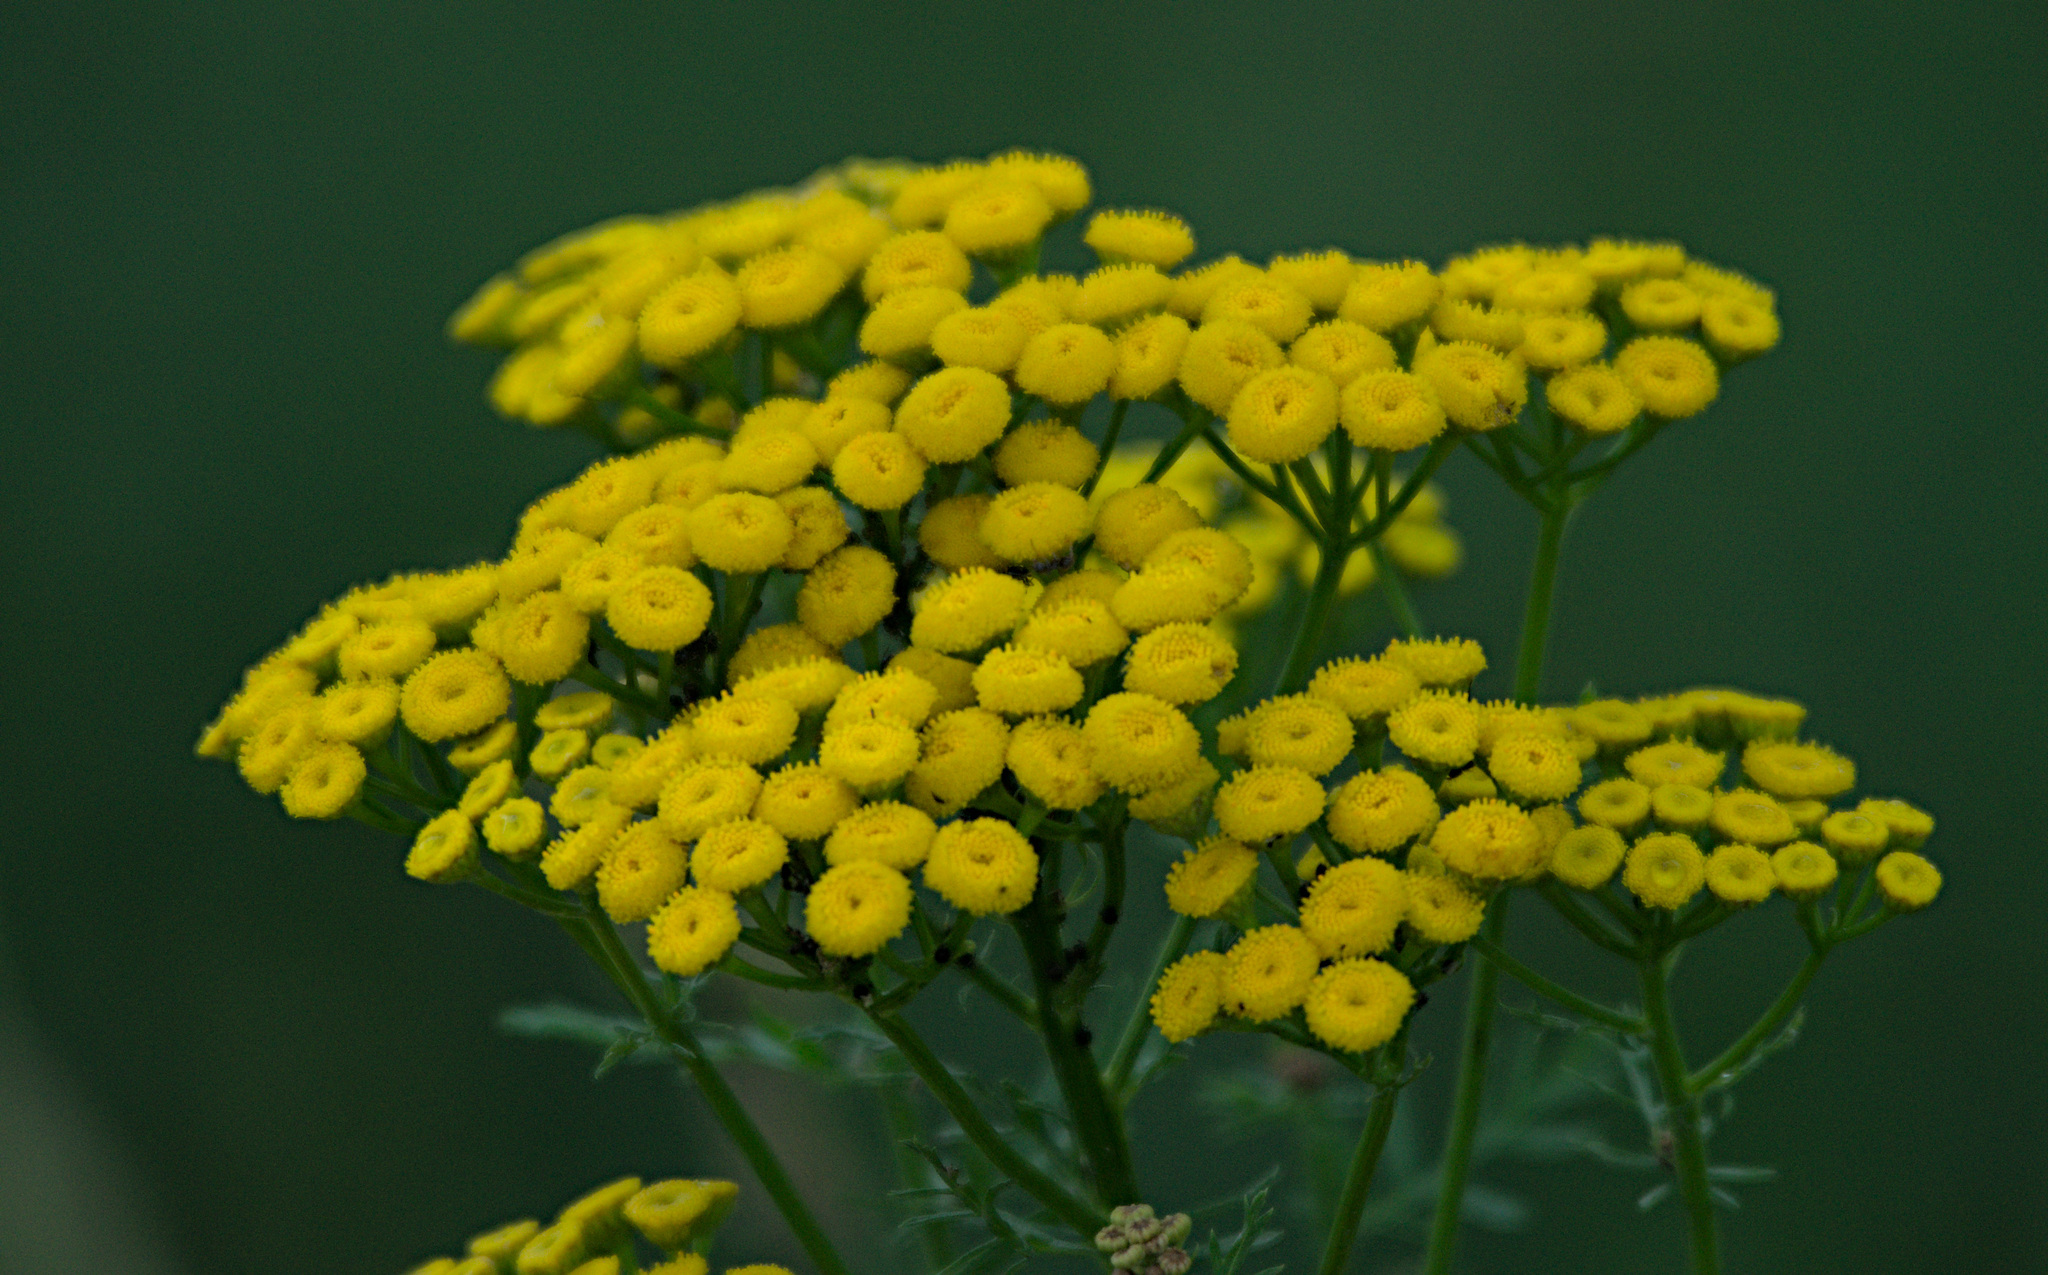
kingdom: Plantae
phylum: Tracheophyta
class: Magnoliopsida
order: Asterales
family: Asteraceae
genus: Tanacetum
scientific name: Tanacetum vulgare
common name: Common tansy
